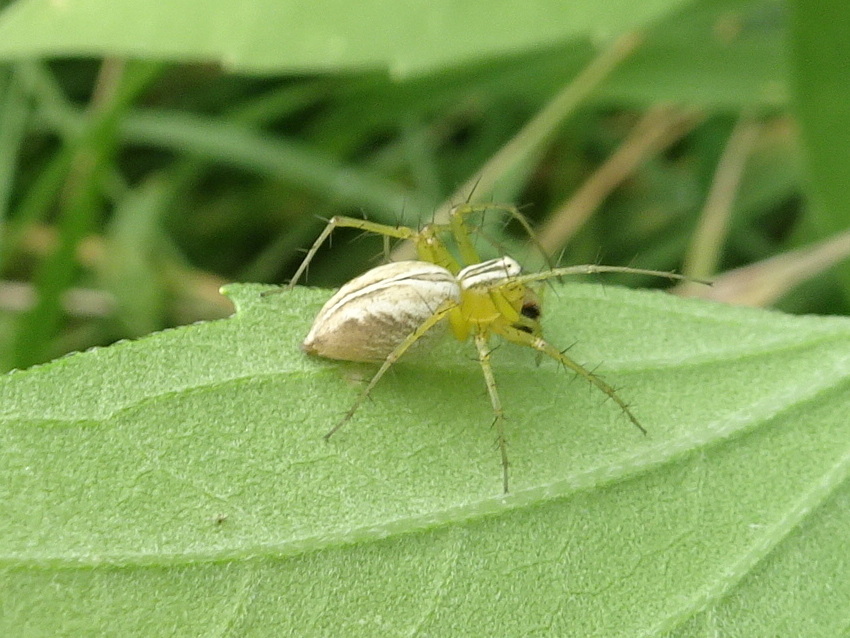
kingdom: Animalia
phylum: Arthropoda
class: Arachnida
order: Araneae
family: Oxyopidae
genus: Oxyopes
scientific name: Oxyopes salticus
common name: Lynx spiders
